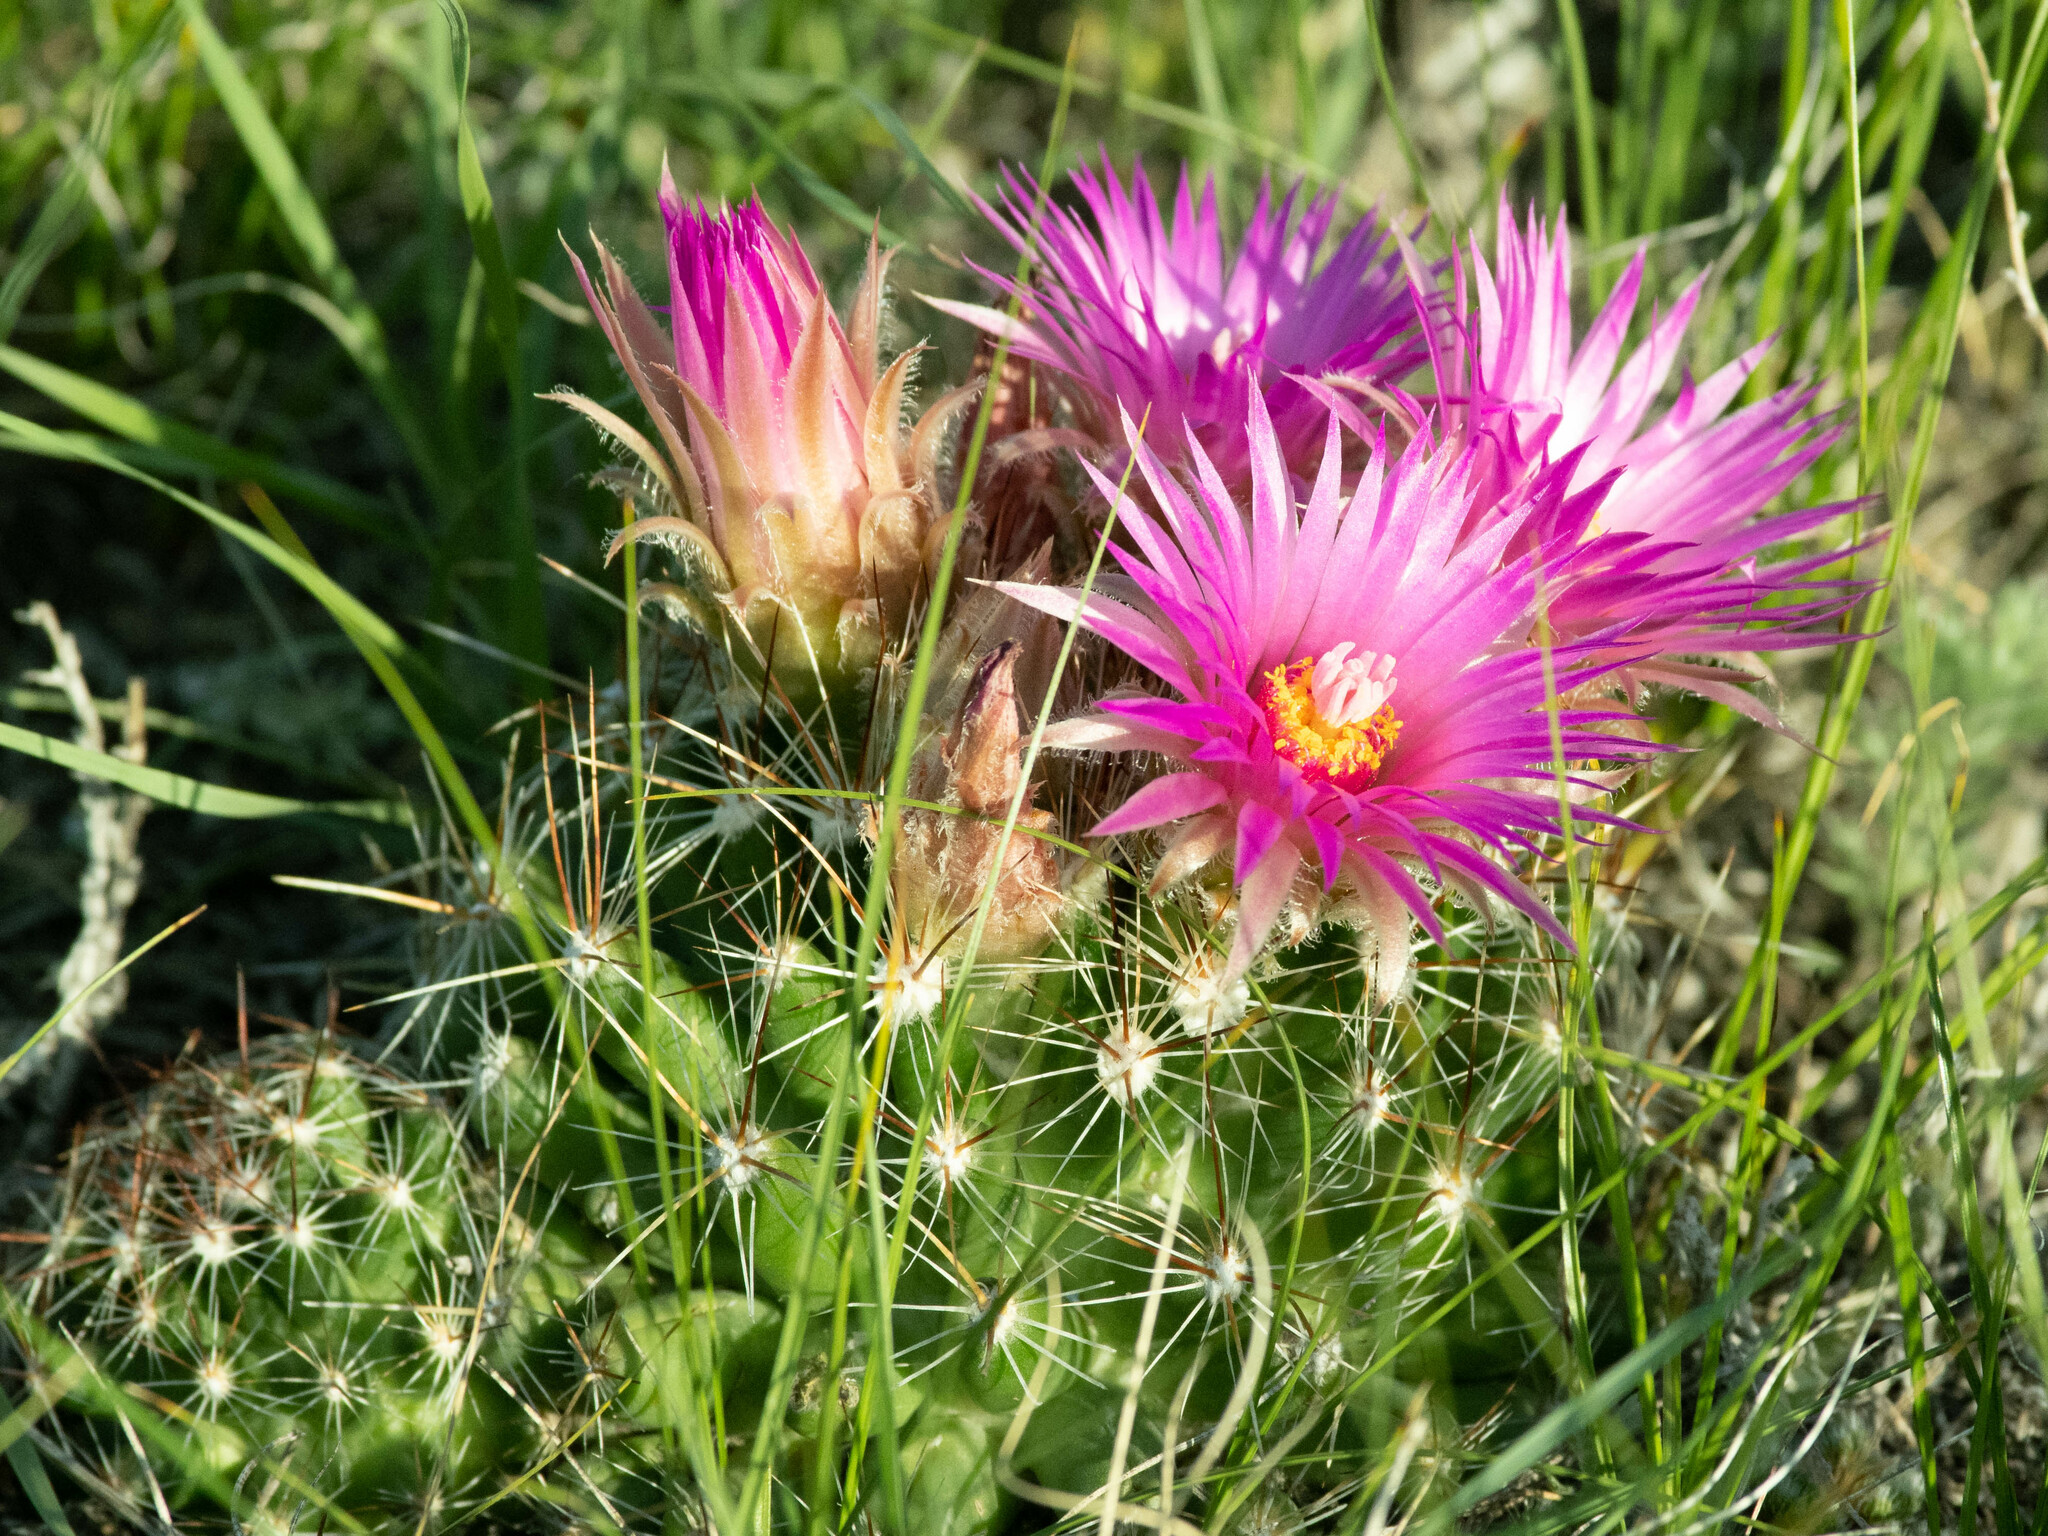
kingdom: Plantae
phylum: Tracheophyta
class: Magnoliopsida
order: Caryophyllales
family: Cactaceae
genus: Pelecyphora
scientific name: Pelecyphora vivipara
